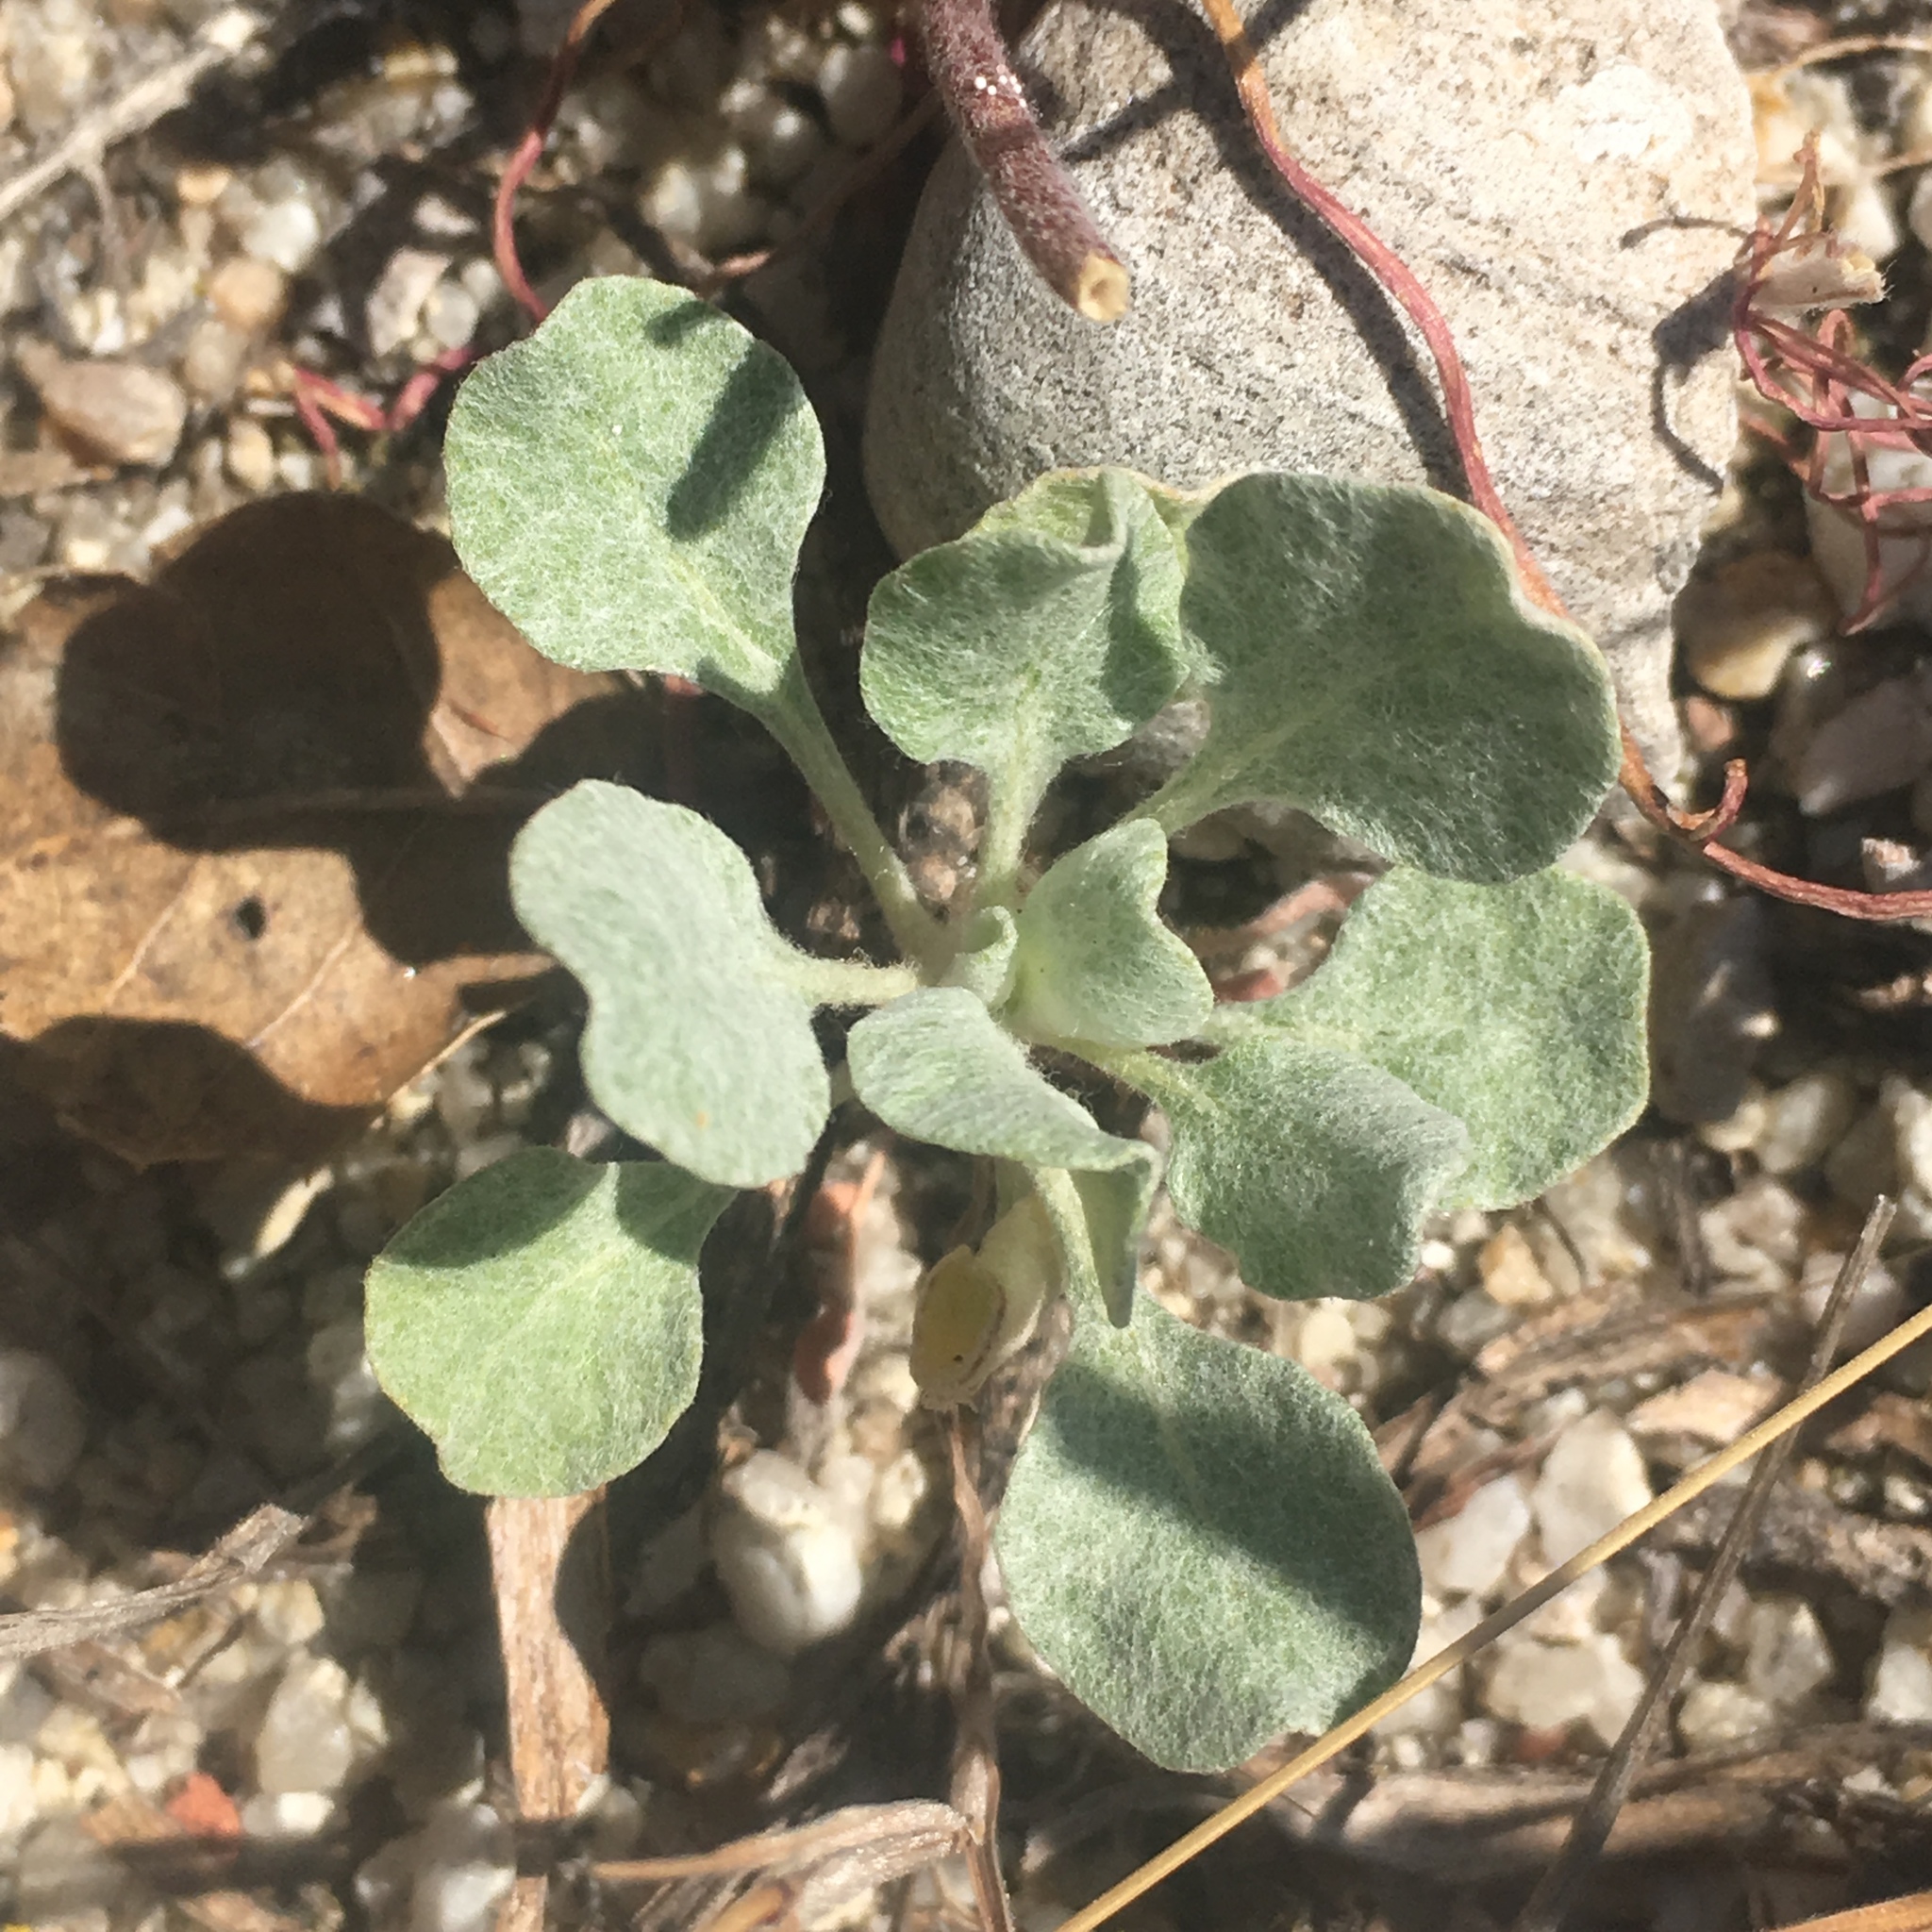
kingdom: Plantae
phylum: Tracheophyta
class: Magnoliopsida
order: Caryophyllales
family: Polygonaceae
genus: Eriogonum
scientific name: Eriogonum elegans
